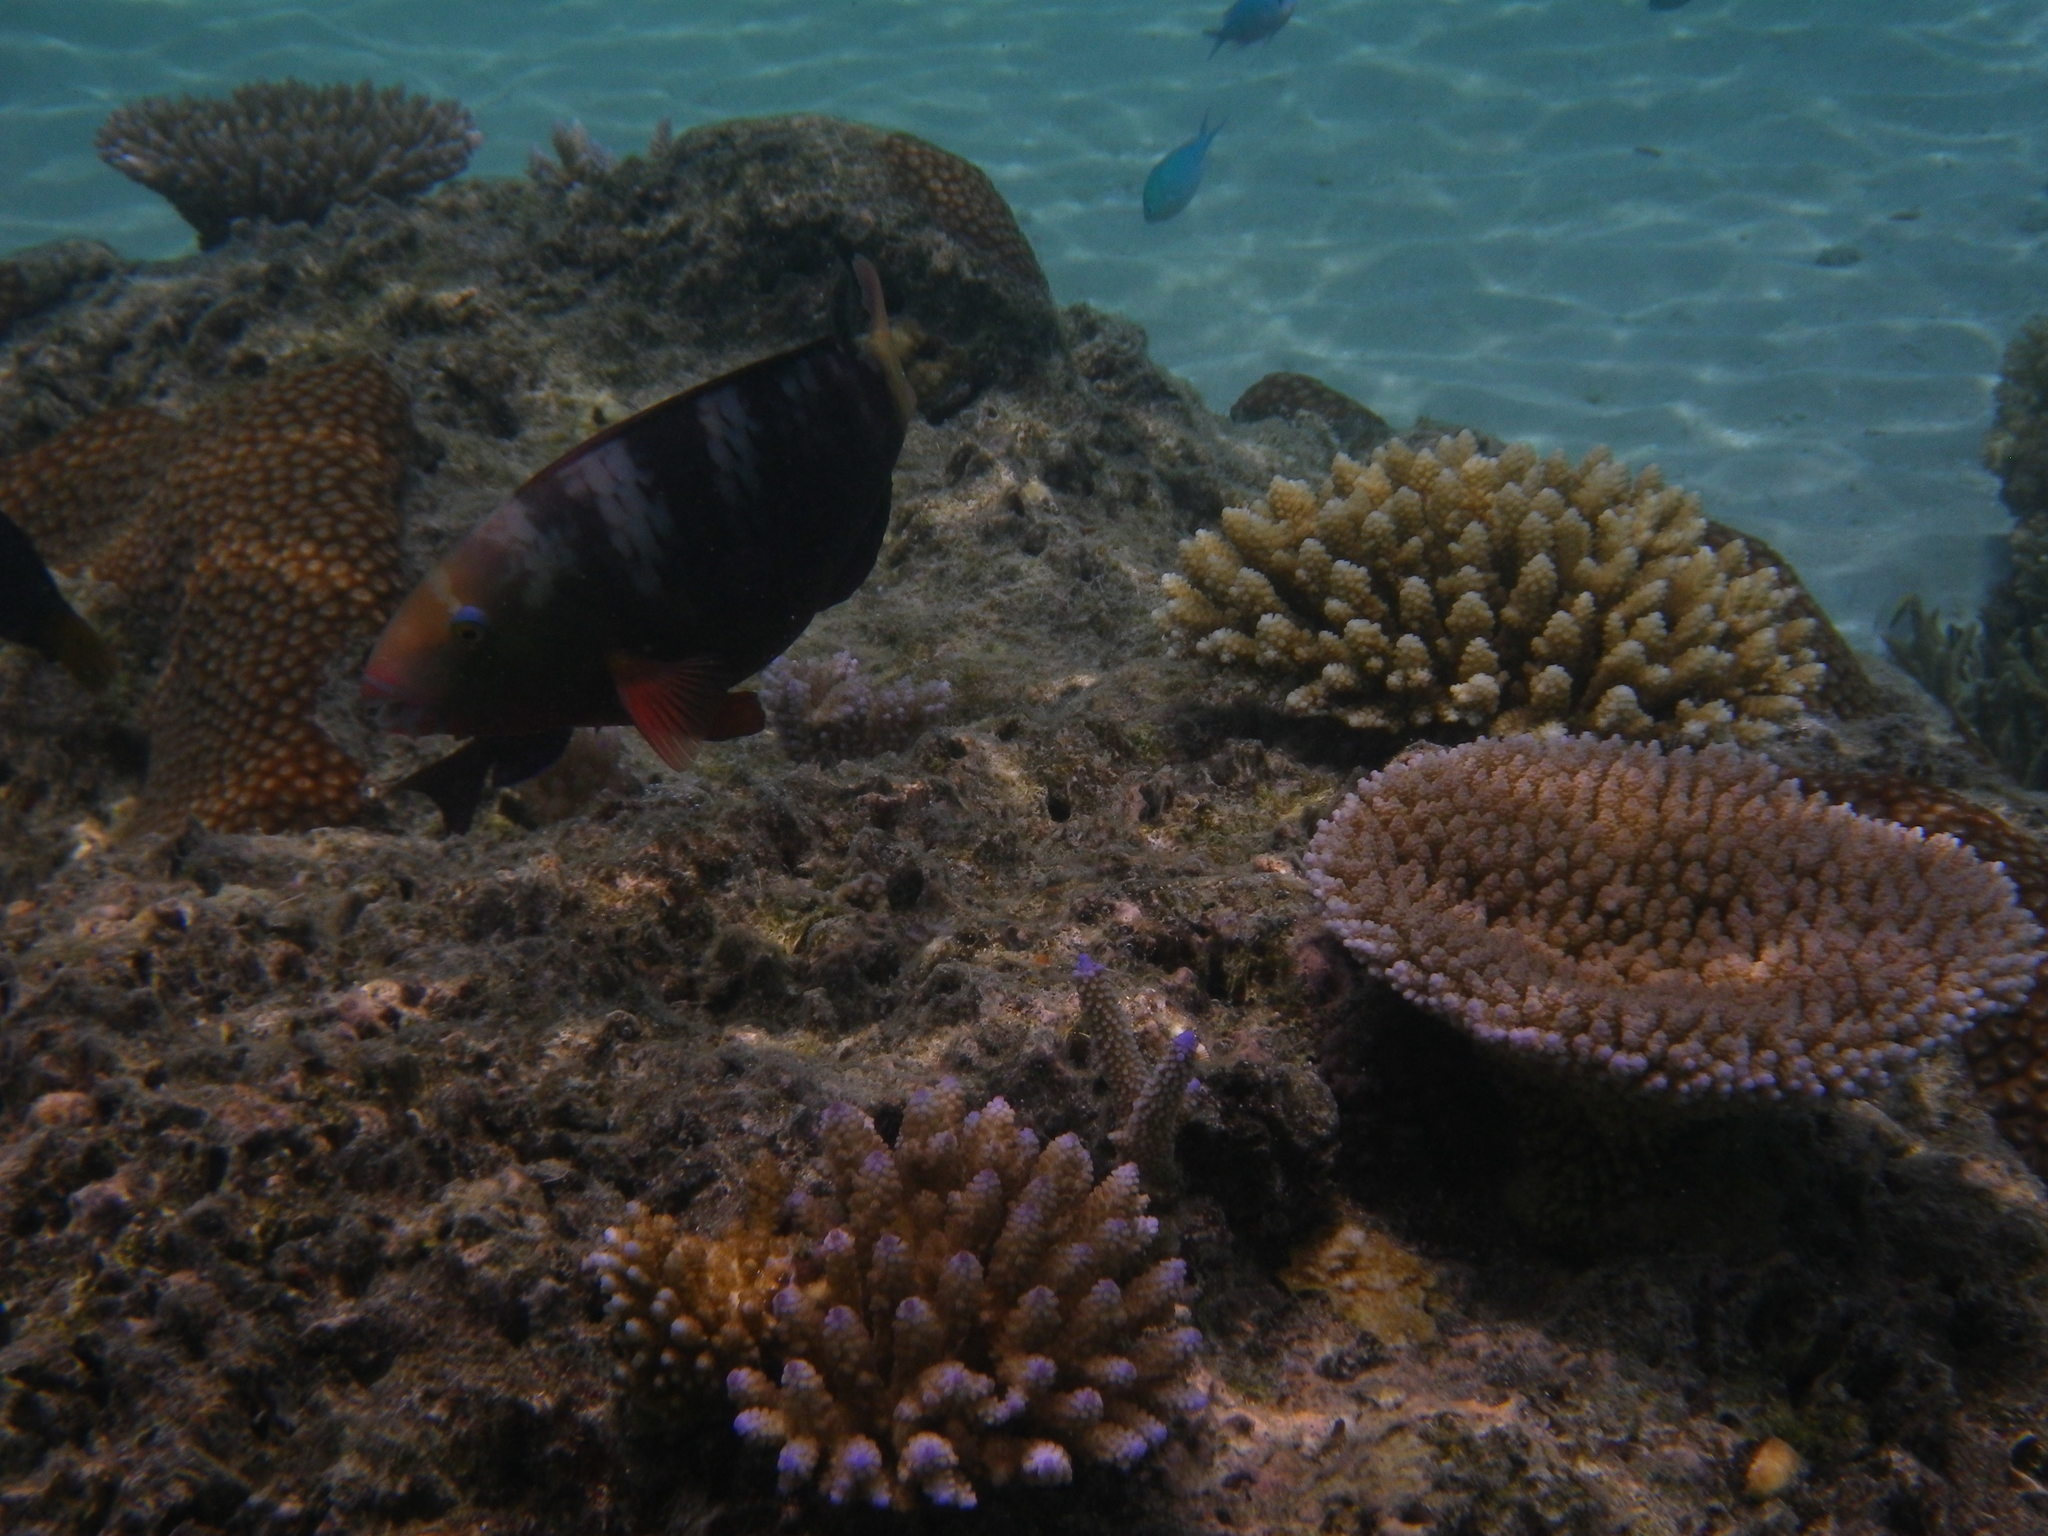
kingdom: Animalia
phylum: Chordata
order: Perciformes
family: Scaridae
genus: Chlorurus
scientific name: Chlorurus bleekeri
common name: Bleeker's parrotfish
